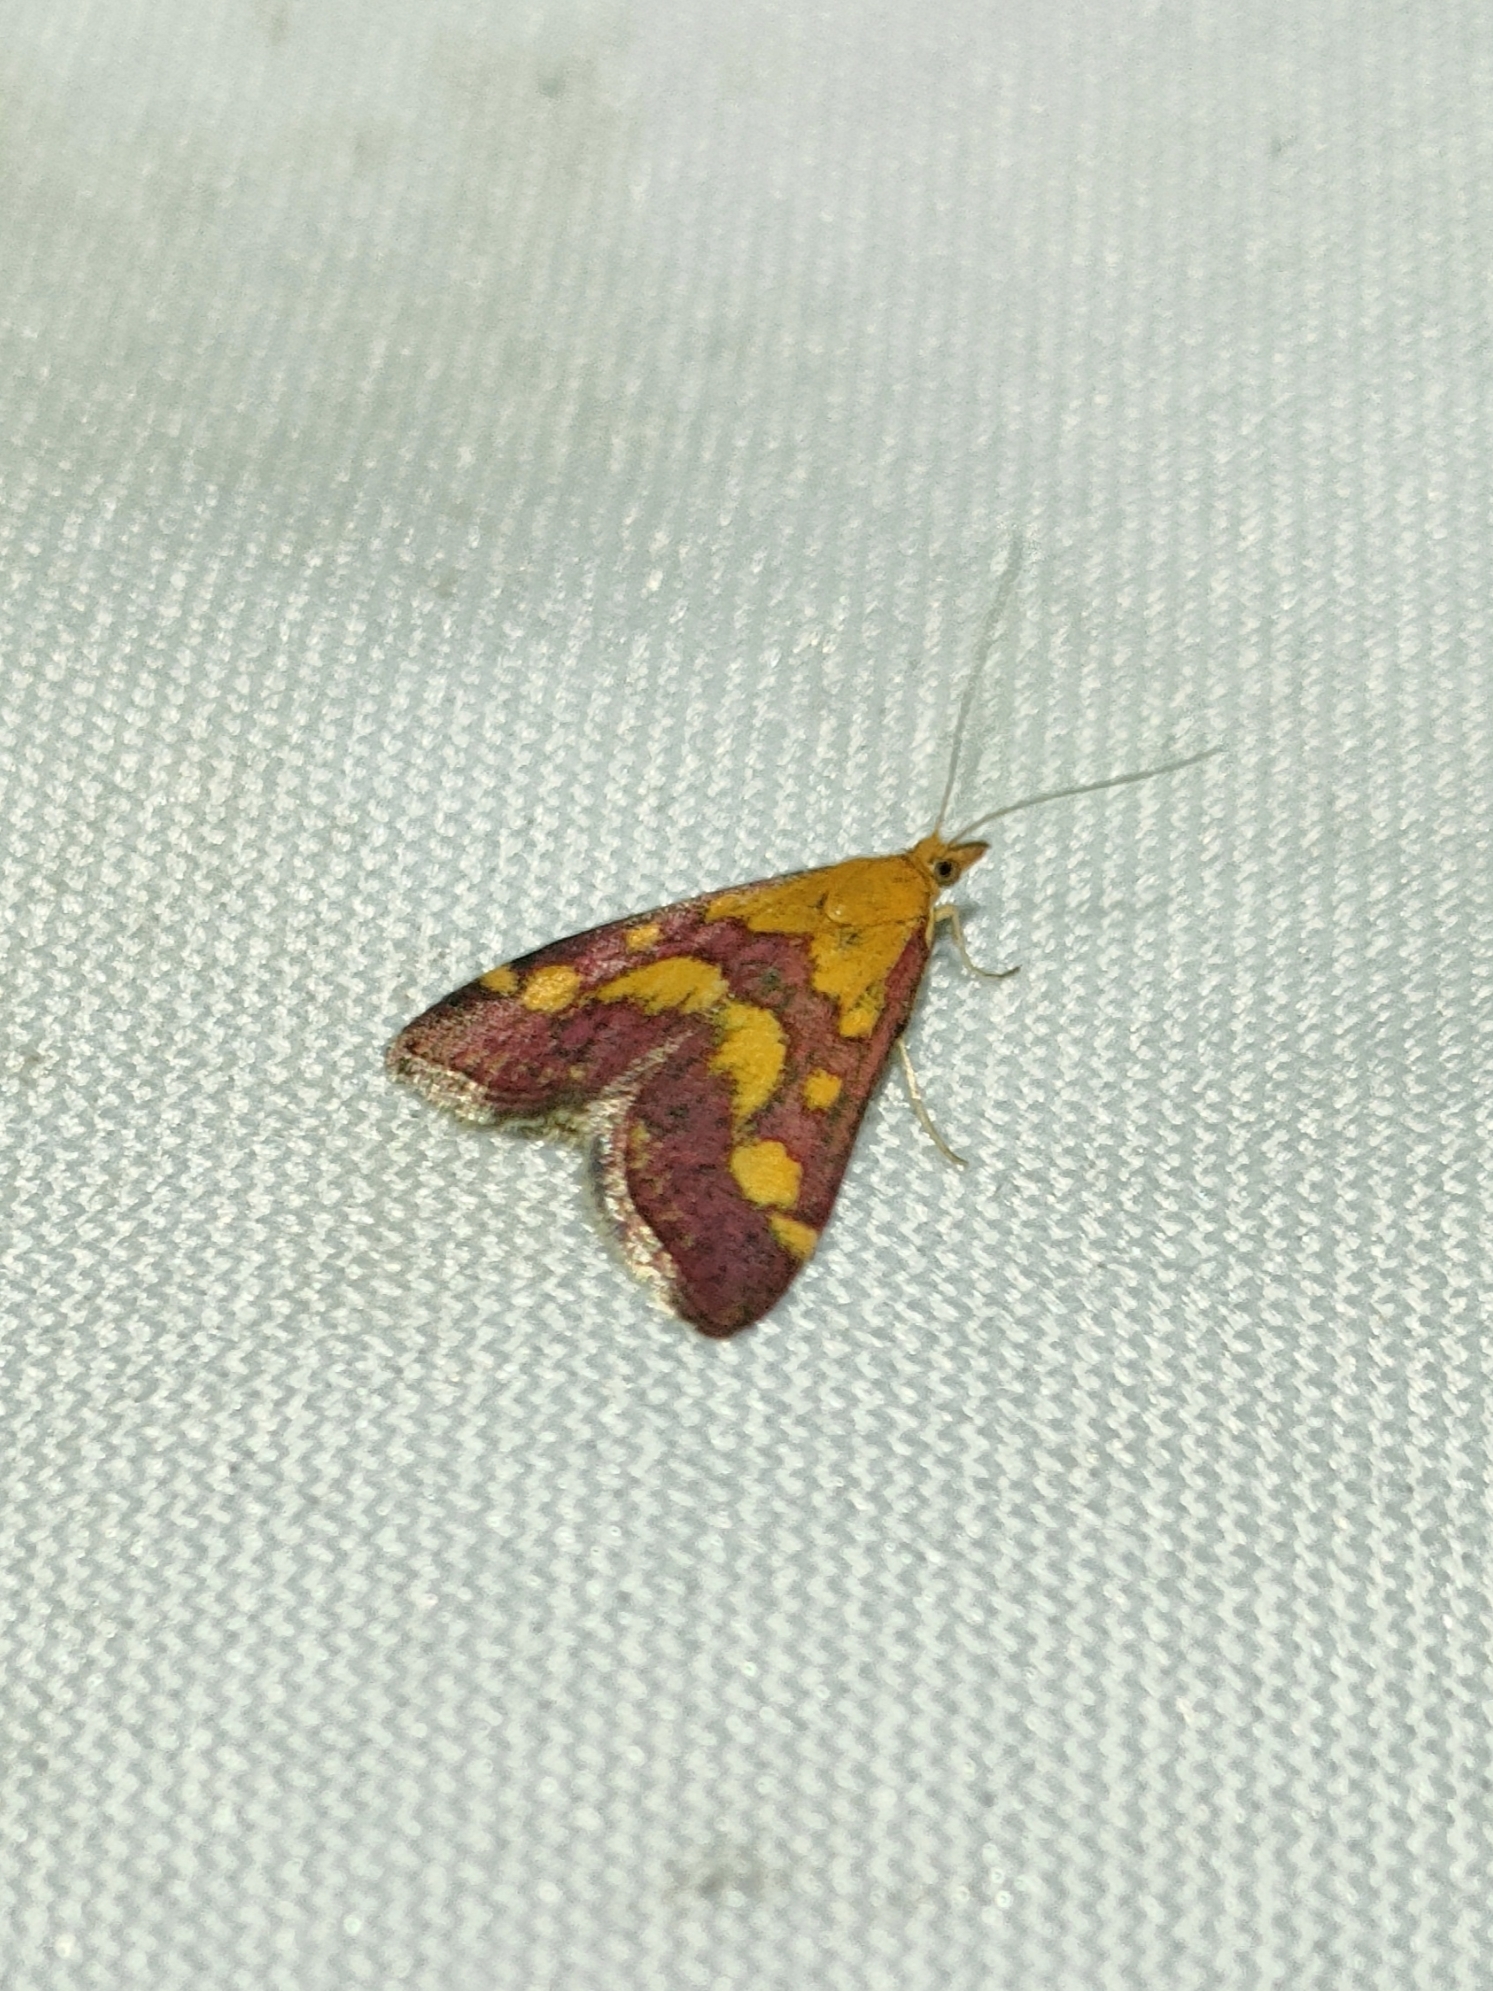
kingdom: Animalia
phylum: Arthropoda
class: Insecta
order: Lepidoptera
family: Crambidae
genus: Pyrausta
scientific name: Pyrausta purpuralis
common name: Common purple & gold
